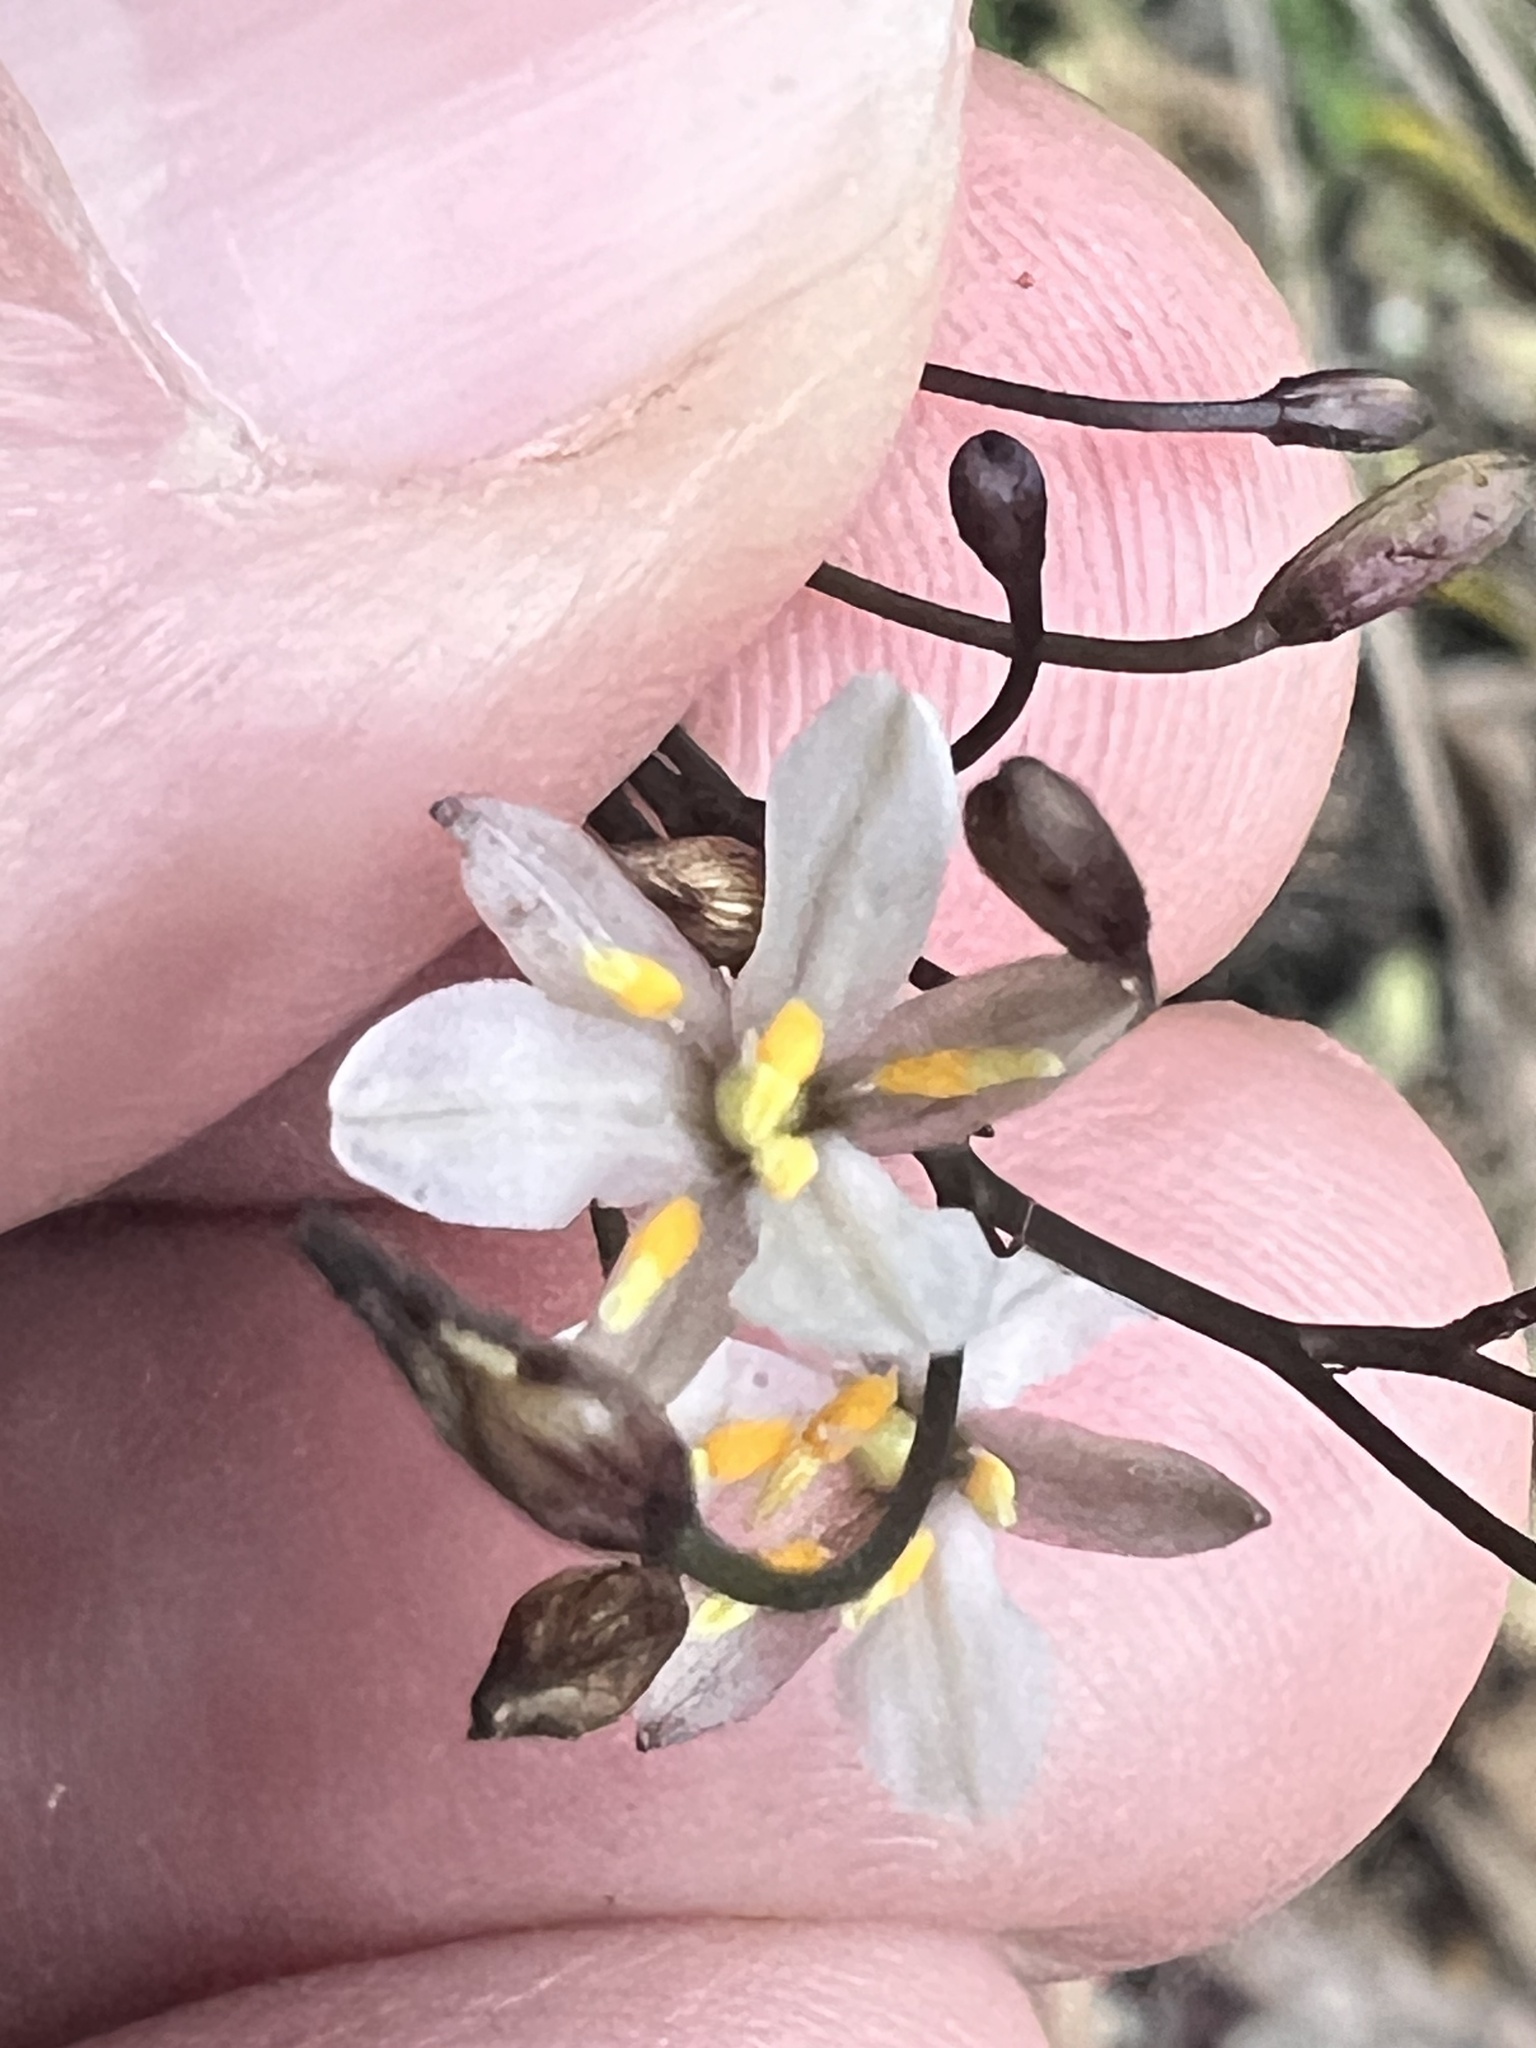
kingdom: Plantae
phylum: Tracheophyta
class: Liliopsida
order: Asparagales
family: Asphodelaceae
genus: Dianella
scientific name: Dianella nigra
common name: New zealand-blueberry
